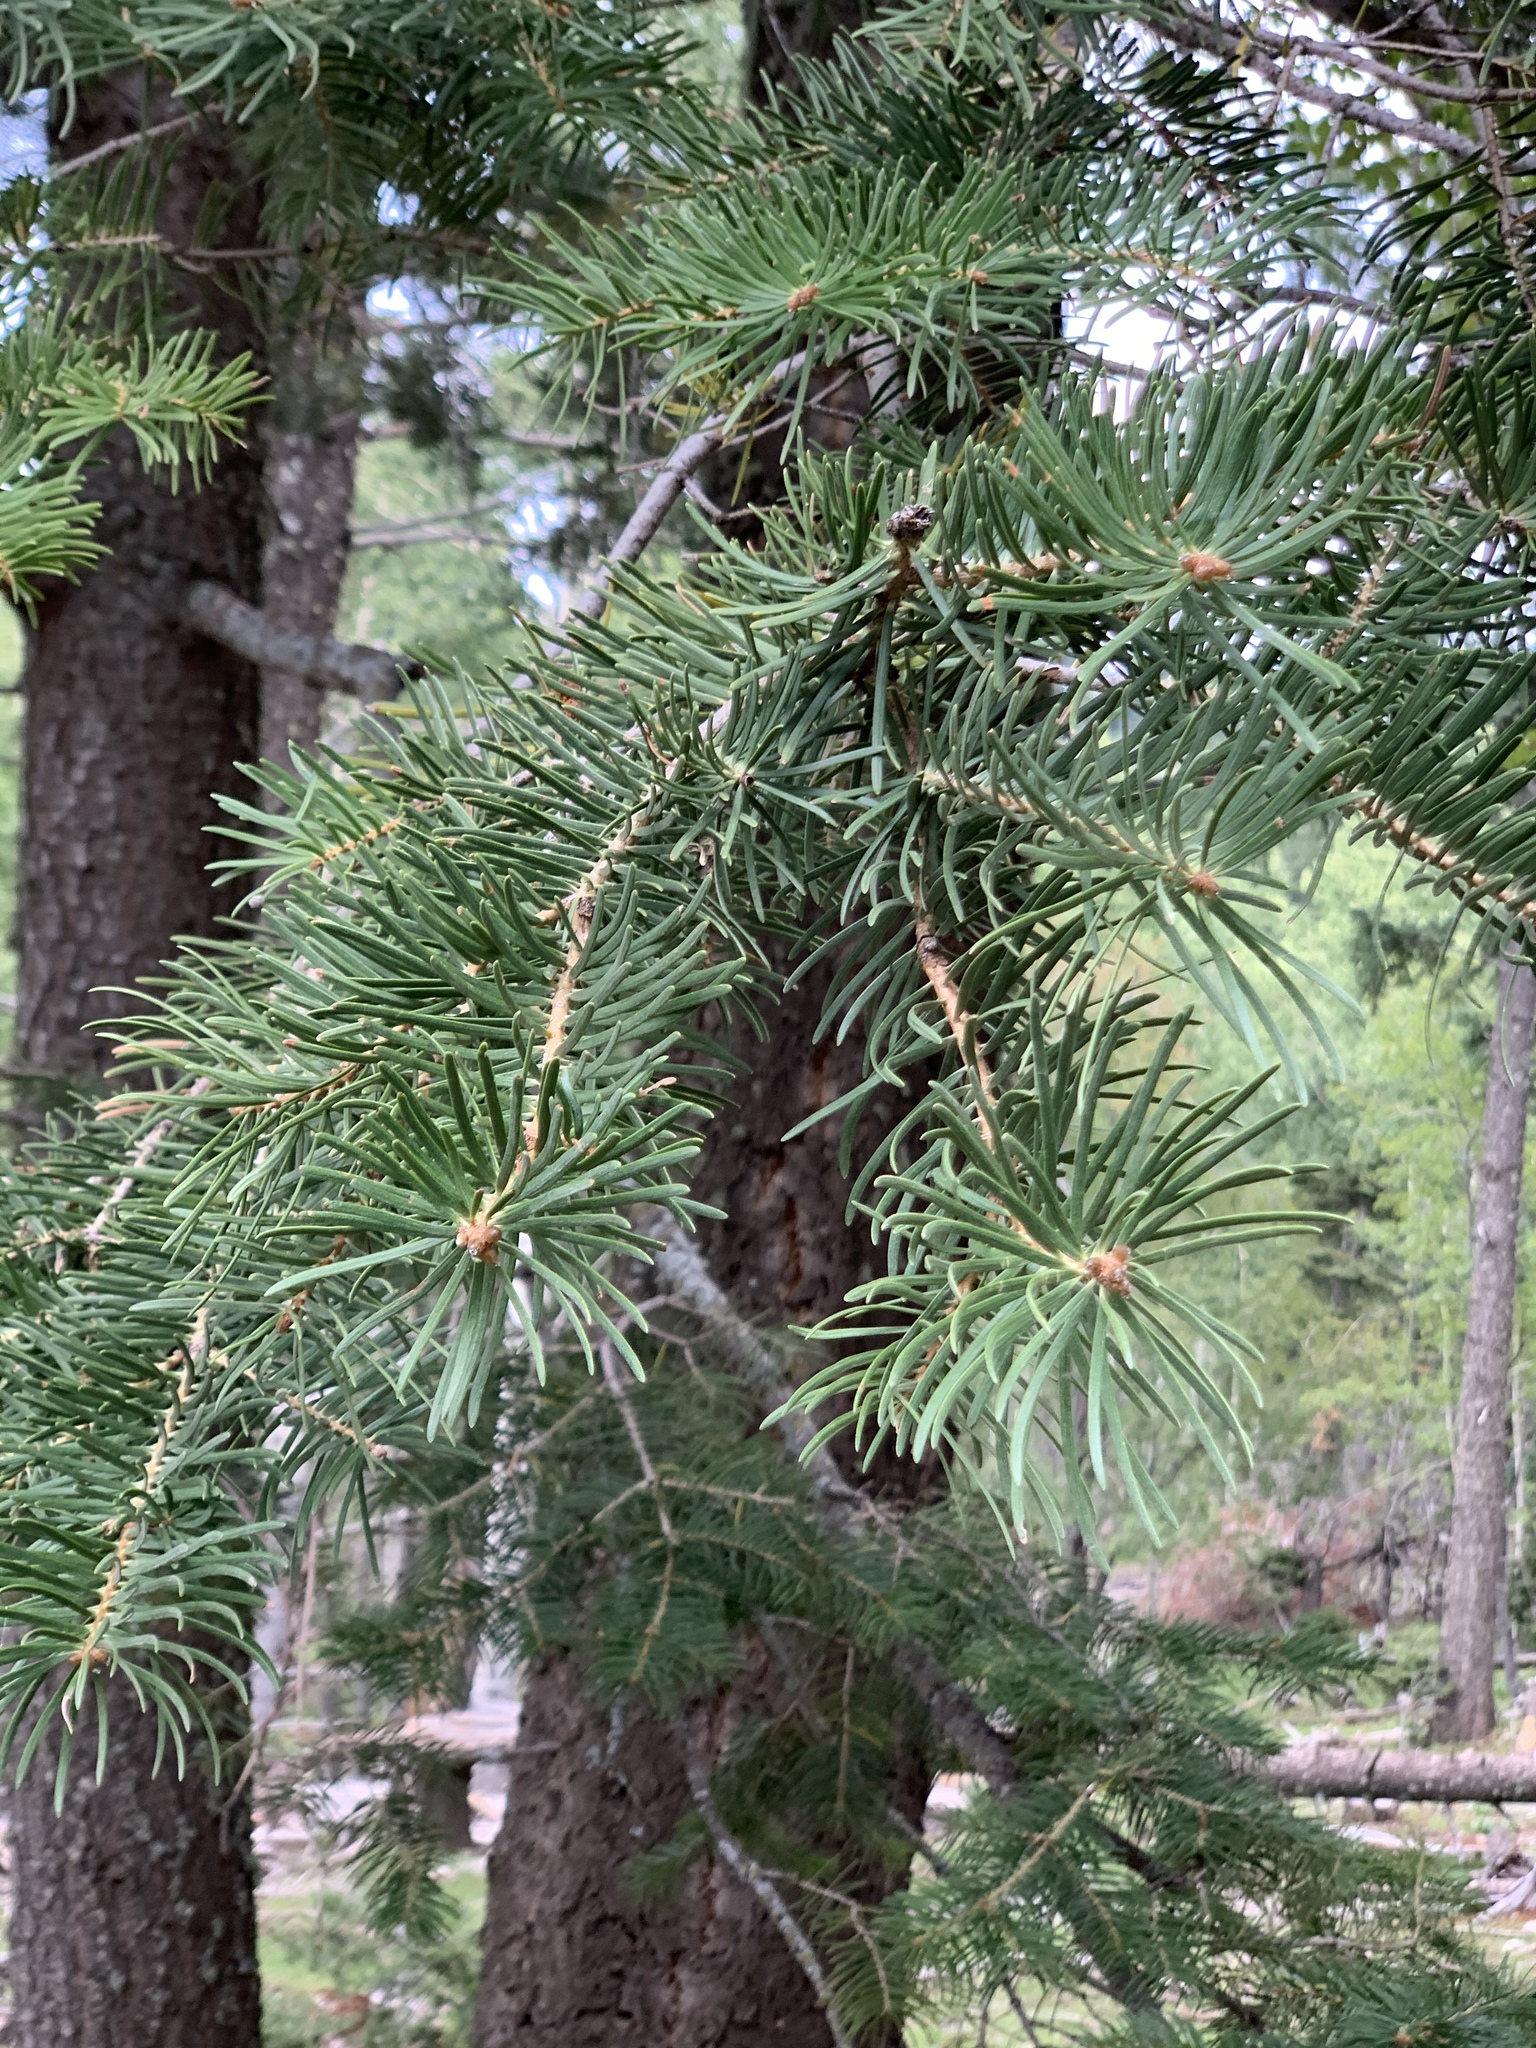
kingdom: Plantae
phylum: Tracheophyta
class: Pinopsida
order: Pinales
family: Pinaceae
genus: Abies
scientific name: Abies concolor
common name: Colorado fir
